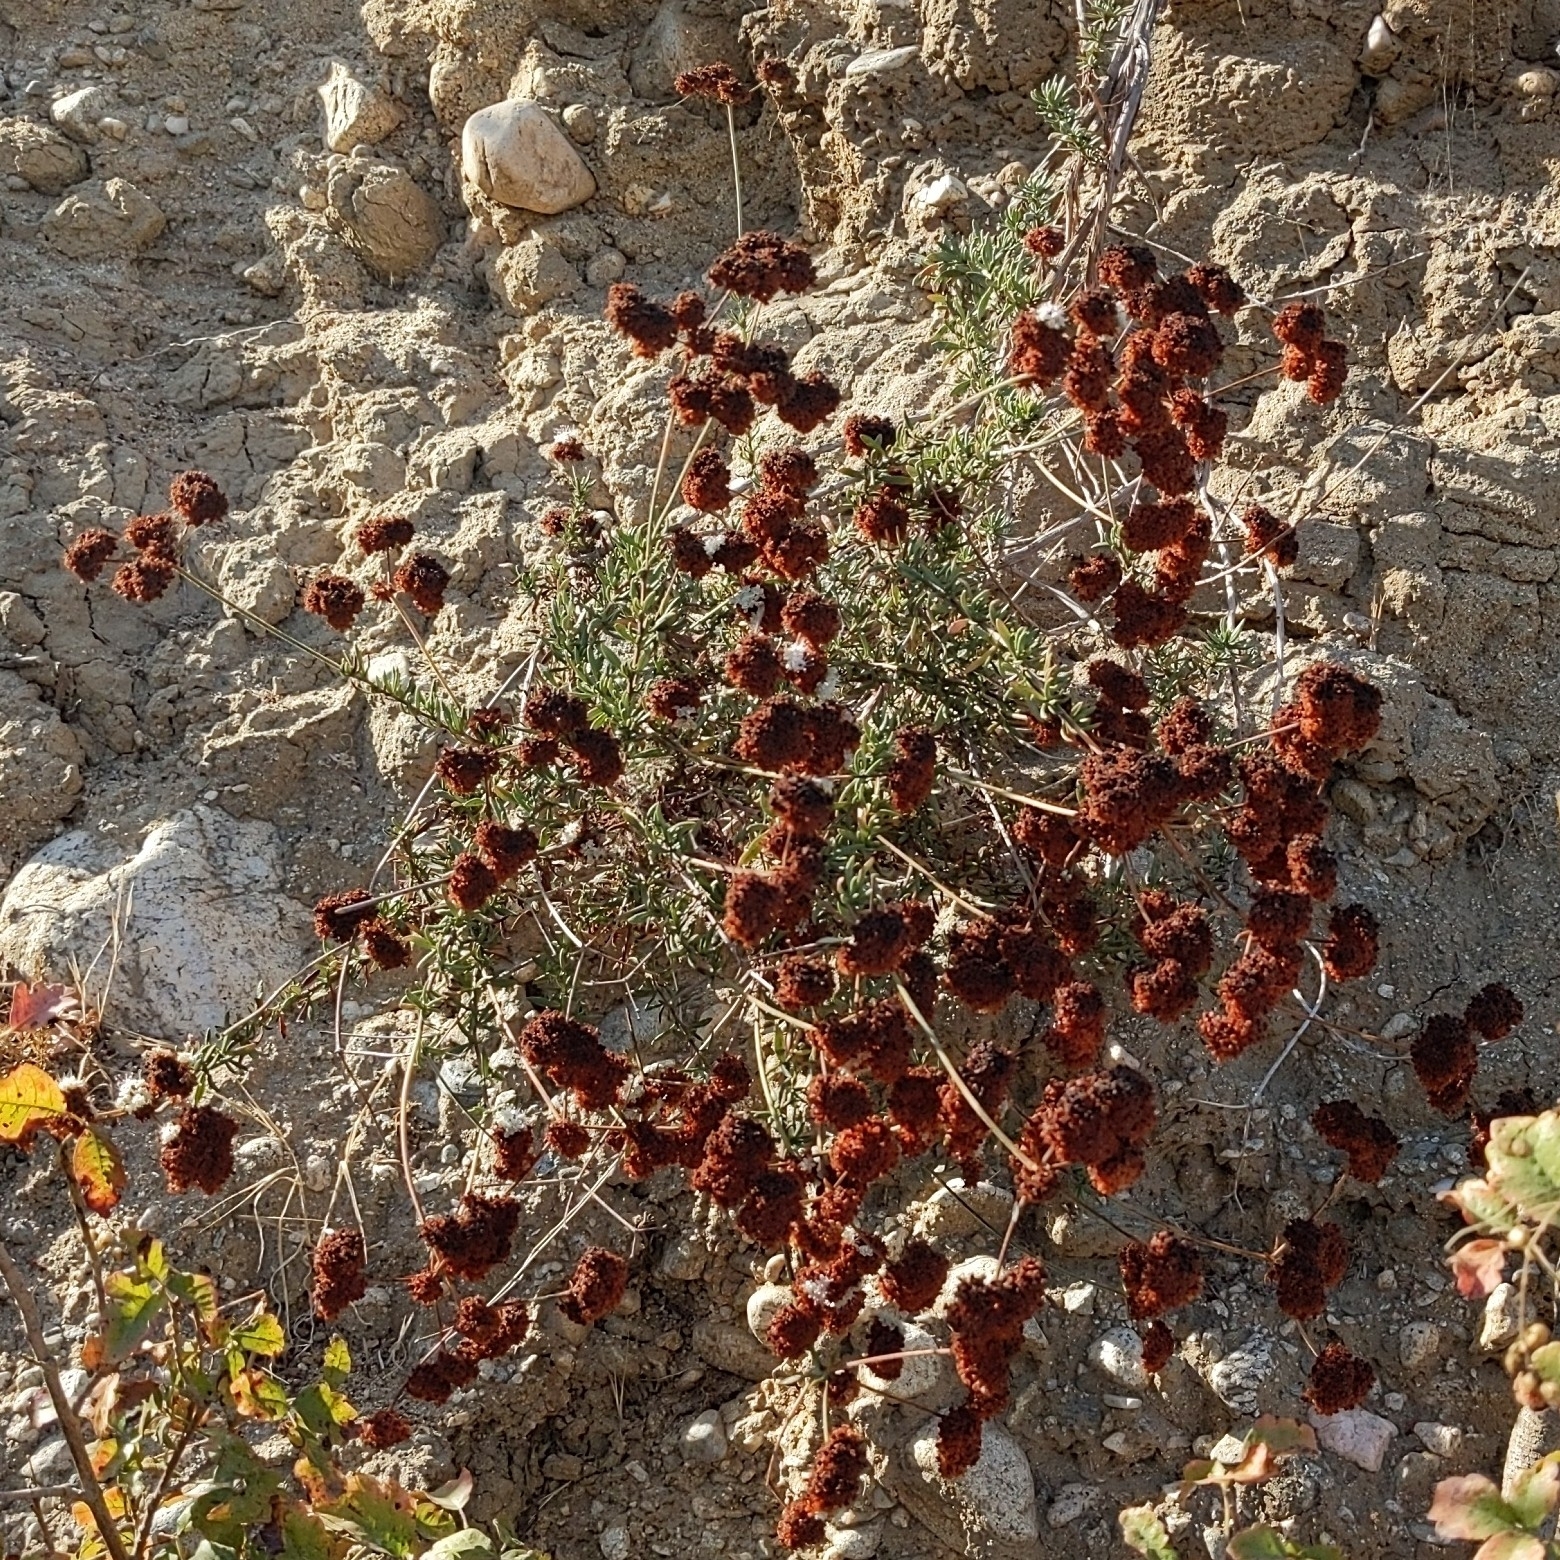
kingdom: Plantae
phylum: Tracheophyta
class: Magnoliopsida
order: Caryophyllales
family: Polygonaceae
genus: Eriogonum
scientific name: Eriogonum fasciculatum
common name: California wild buckwheat
